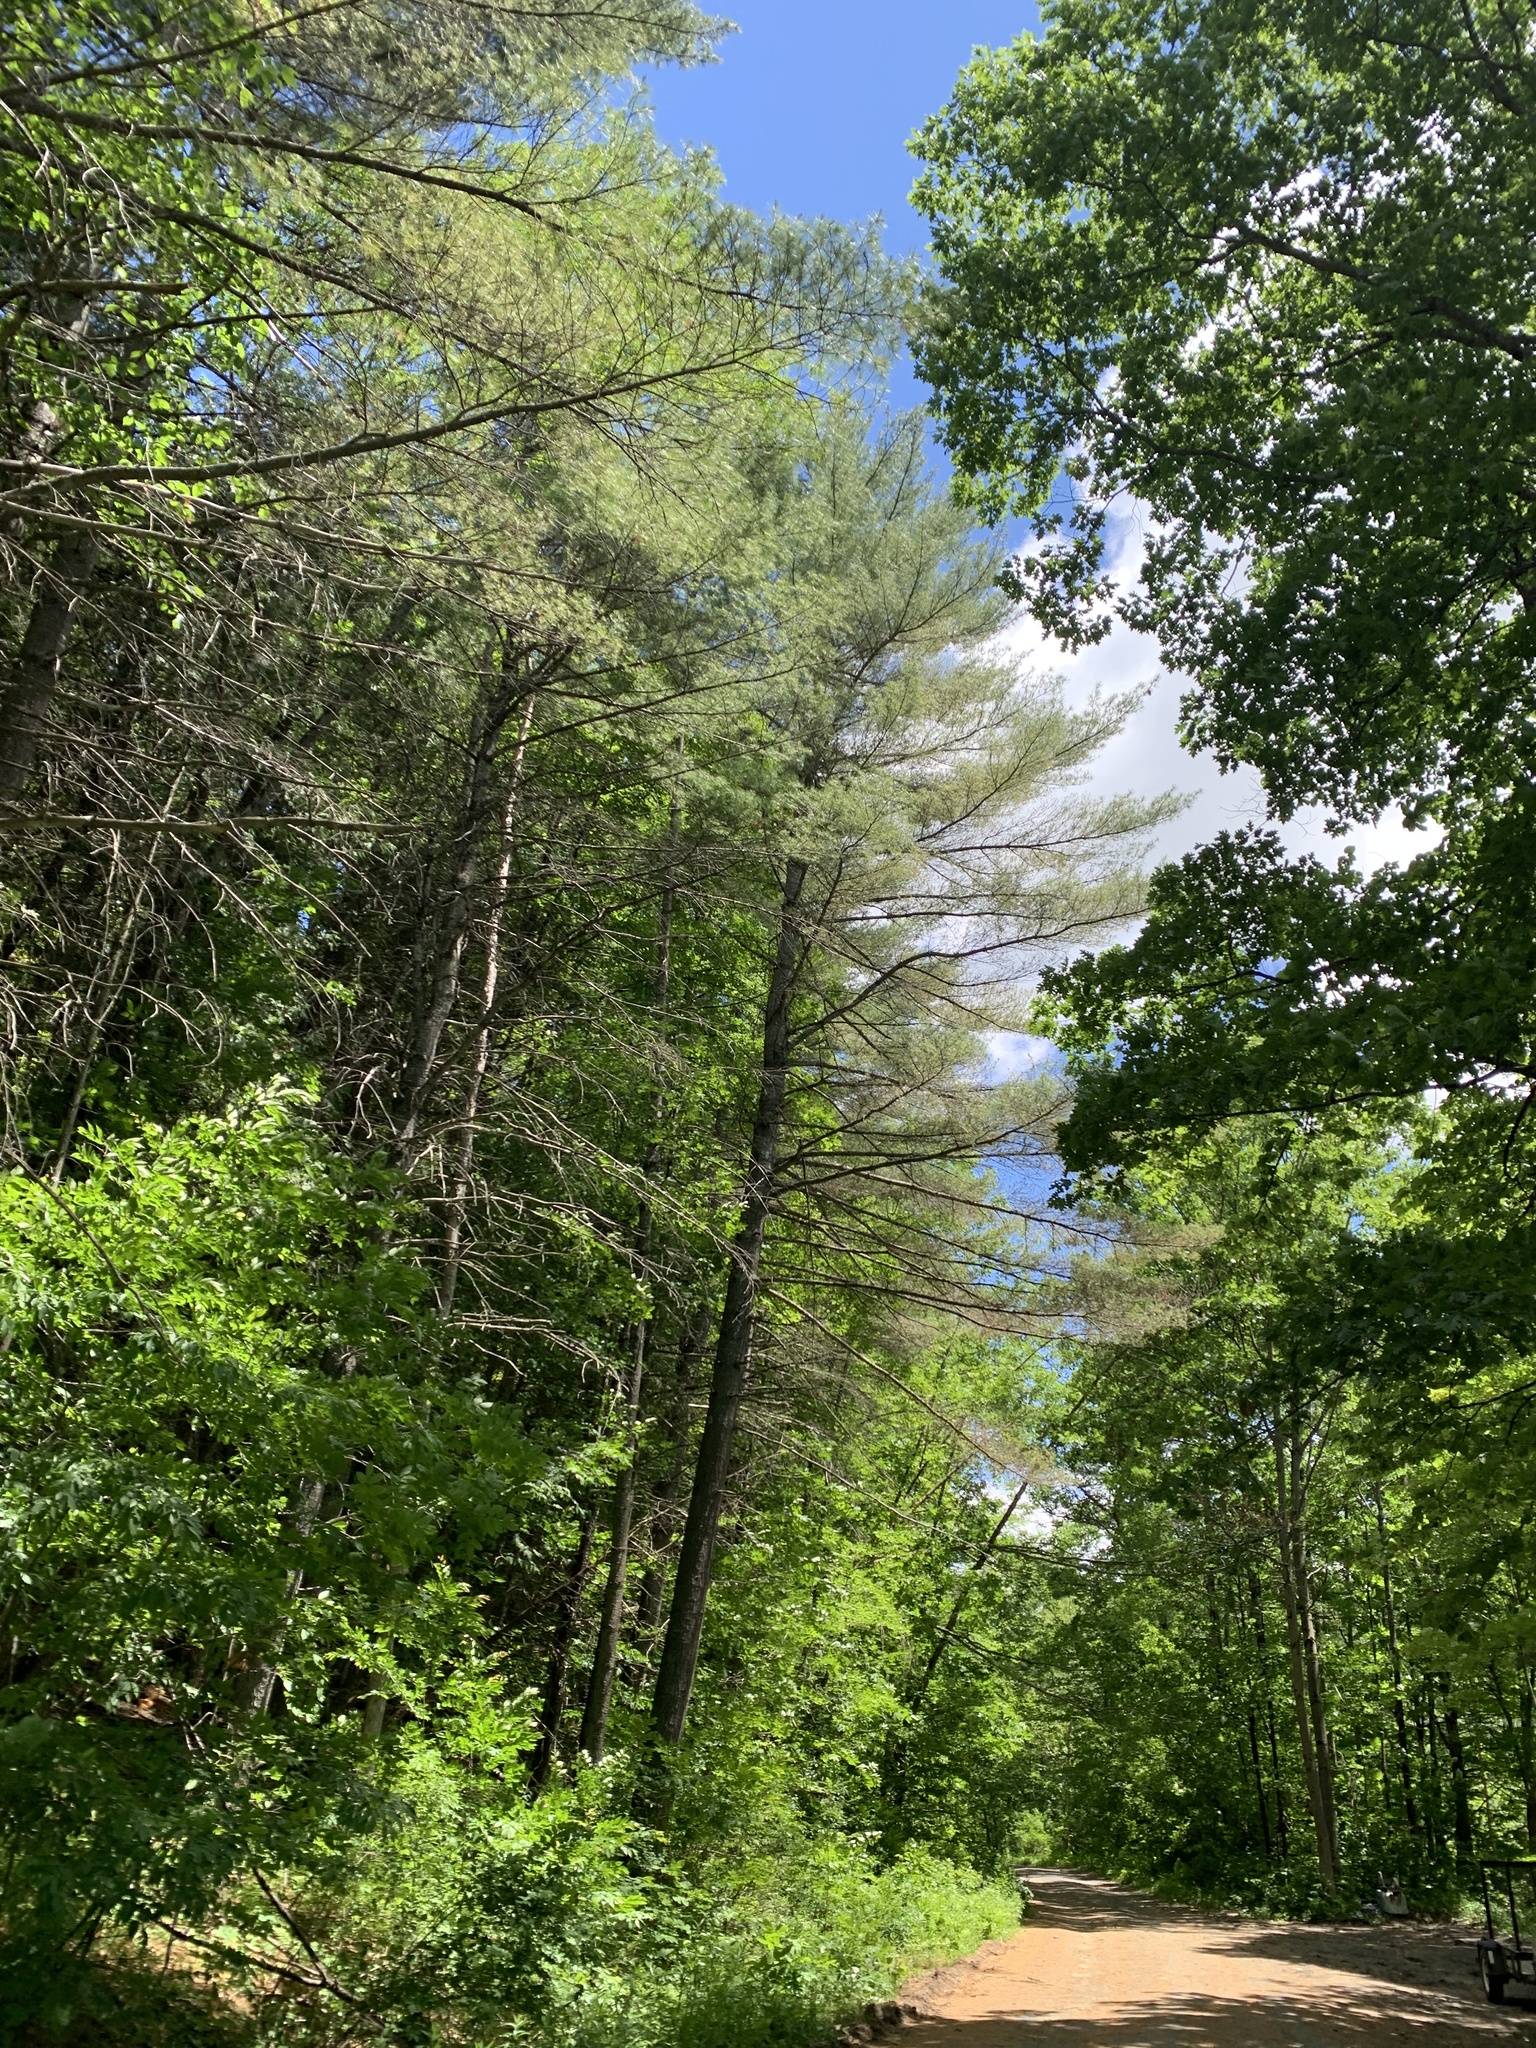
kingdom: Plantae
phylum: Tracheophyta
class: Pinopsida
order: Pinales
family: Pinaceae
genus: Pinus
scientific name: Pinus strobus
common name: Weymouth pine
